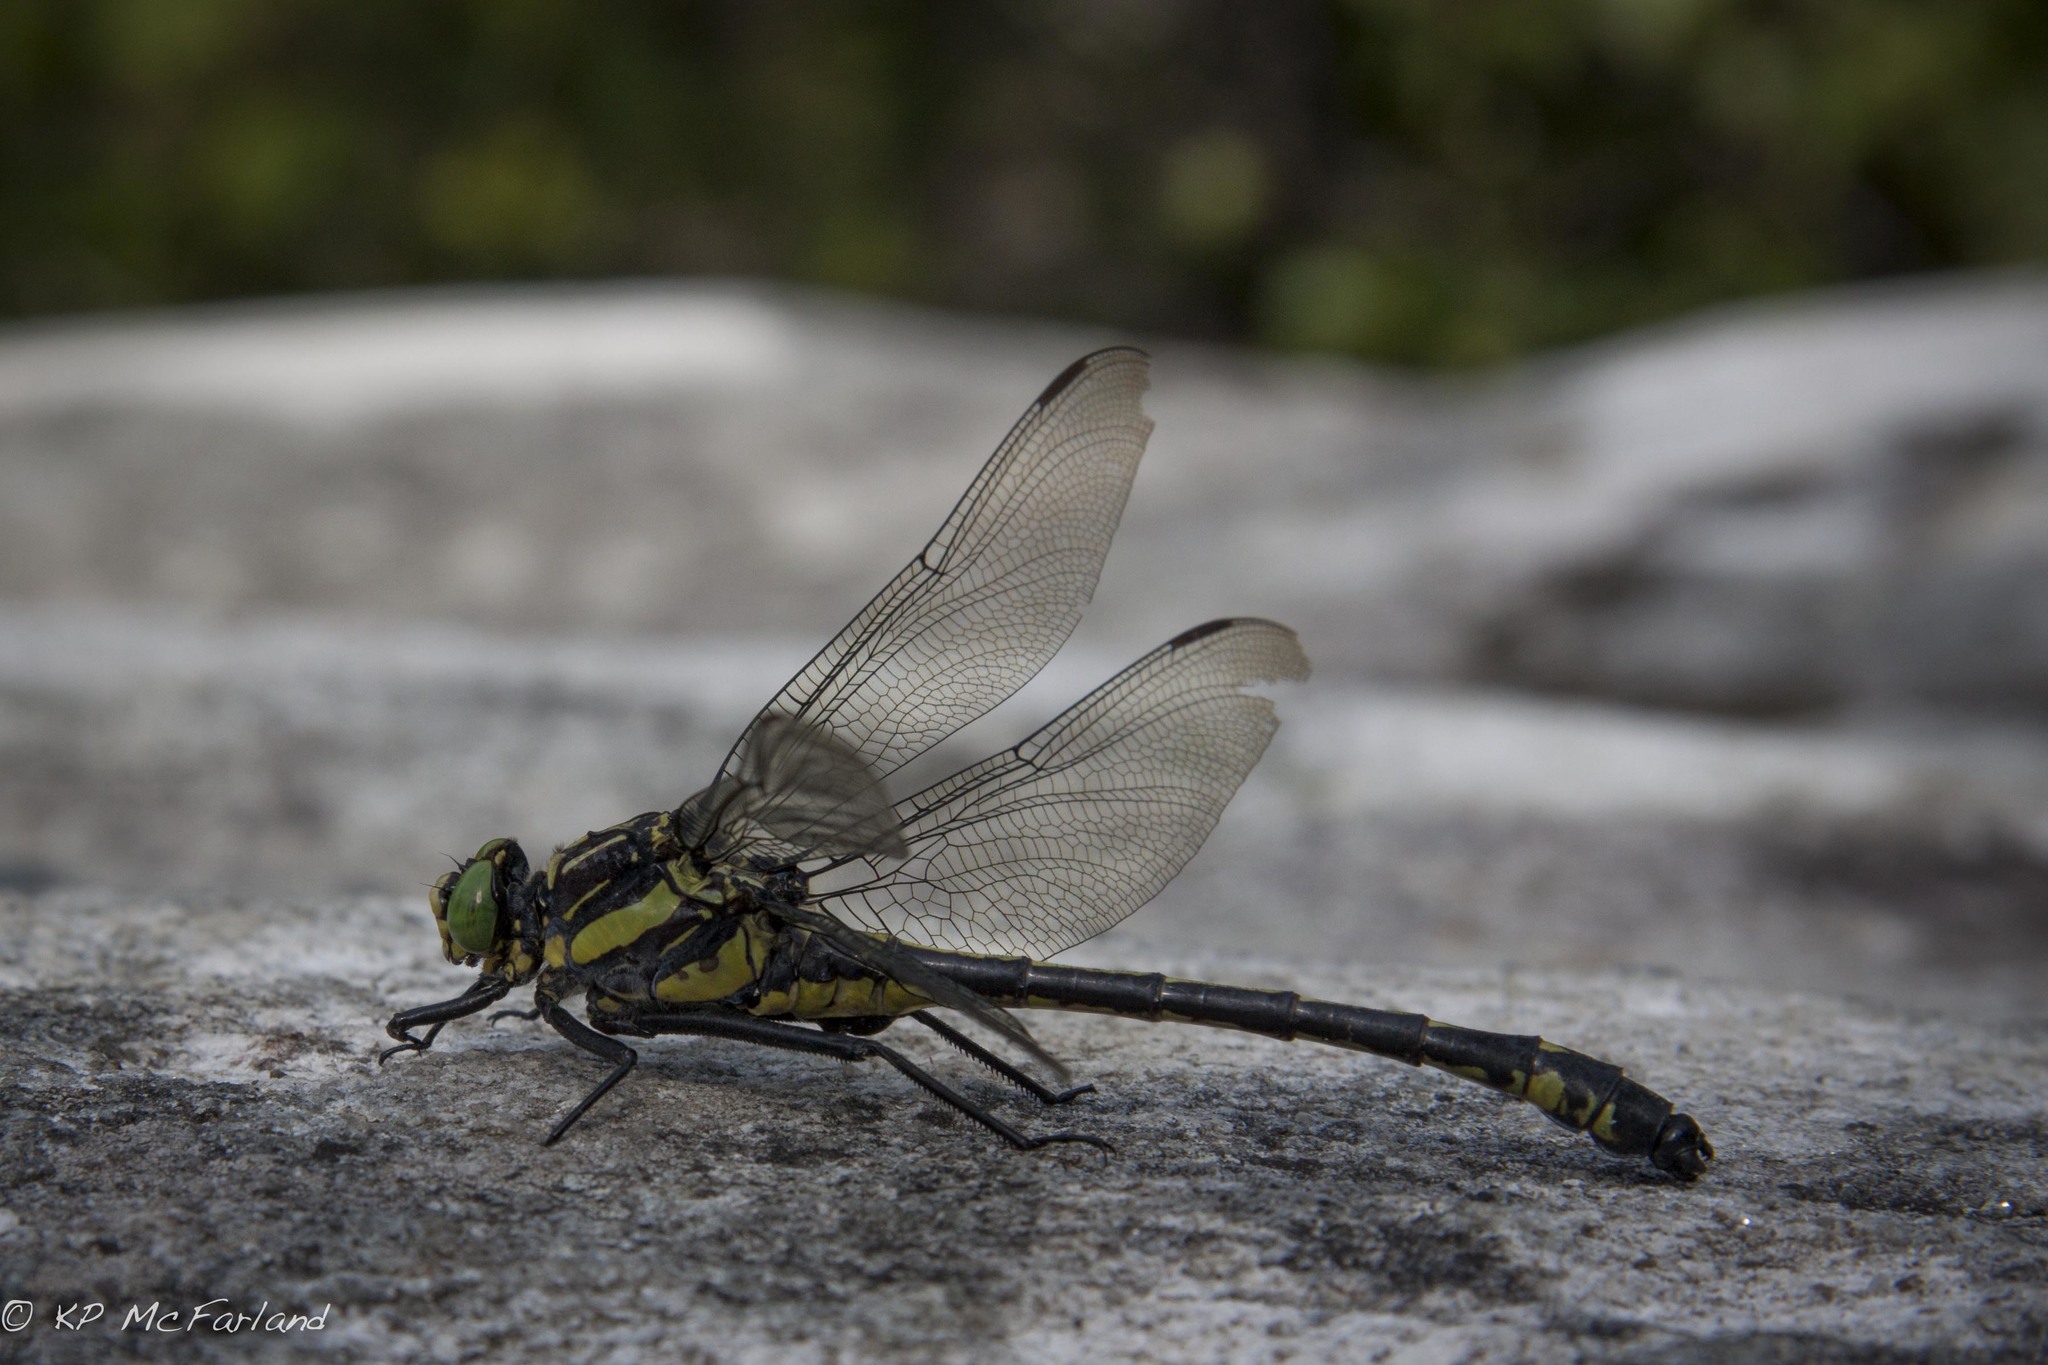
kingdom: Animalia
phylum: Arthropoda
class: Insecta
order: Odonata
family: Gomphidae
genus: Hagenius
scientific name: Hagenius brevistylus
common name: Dragonhunter
